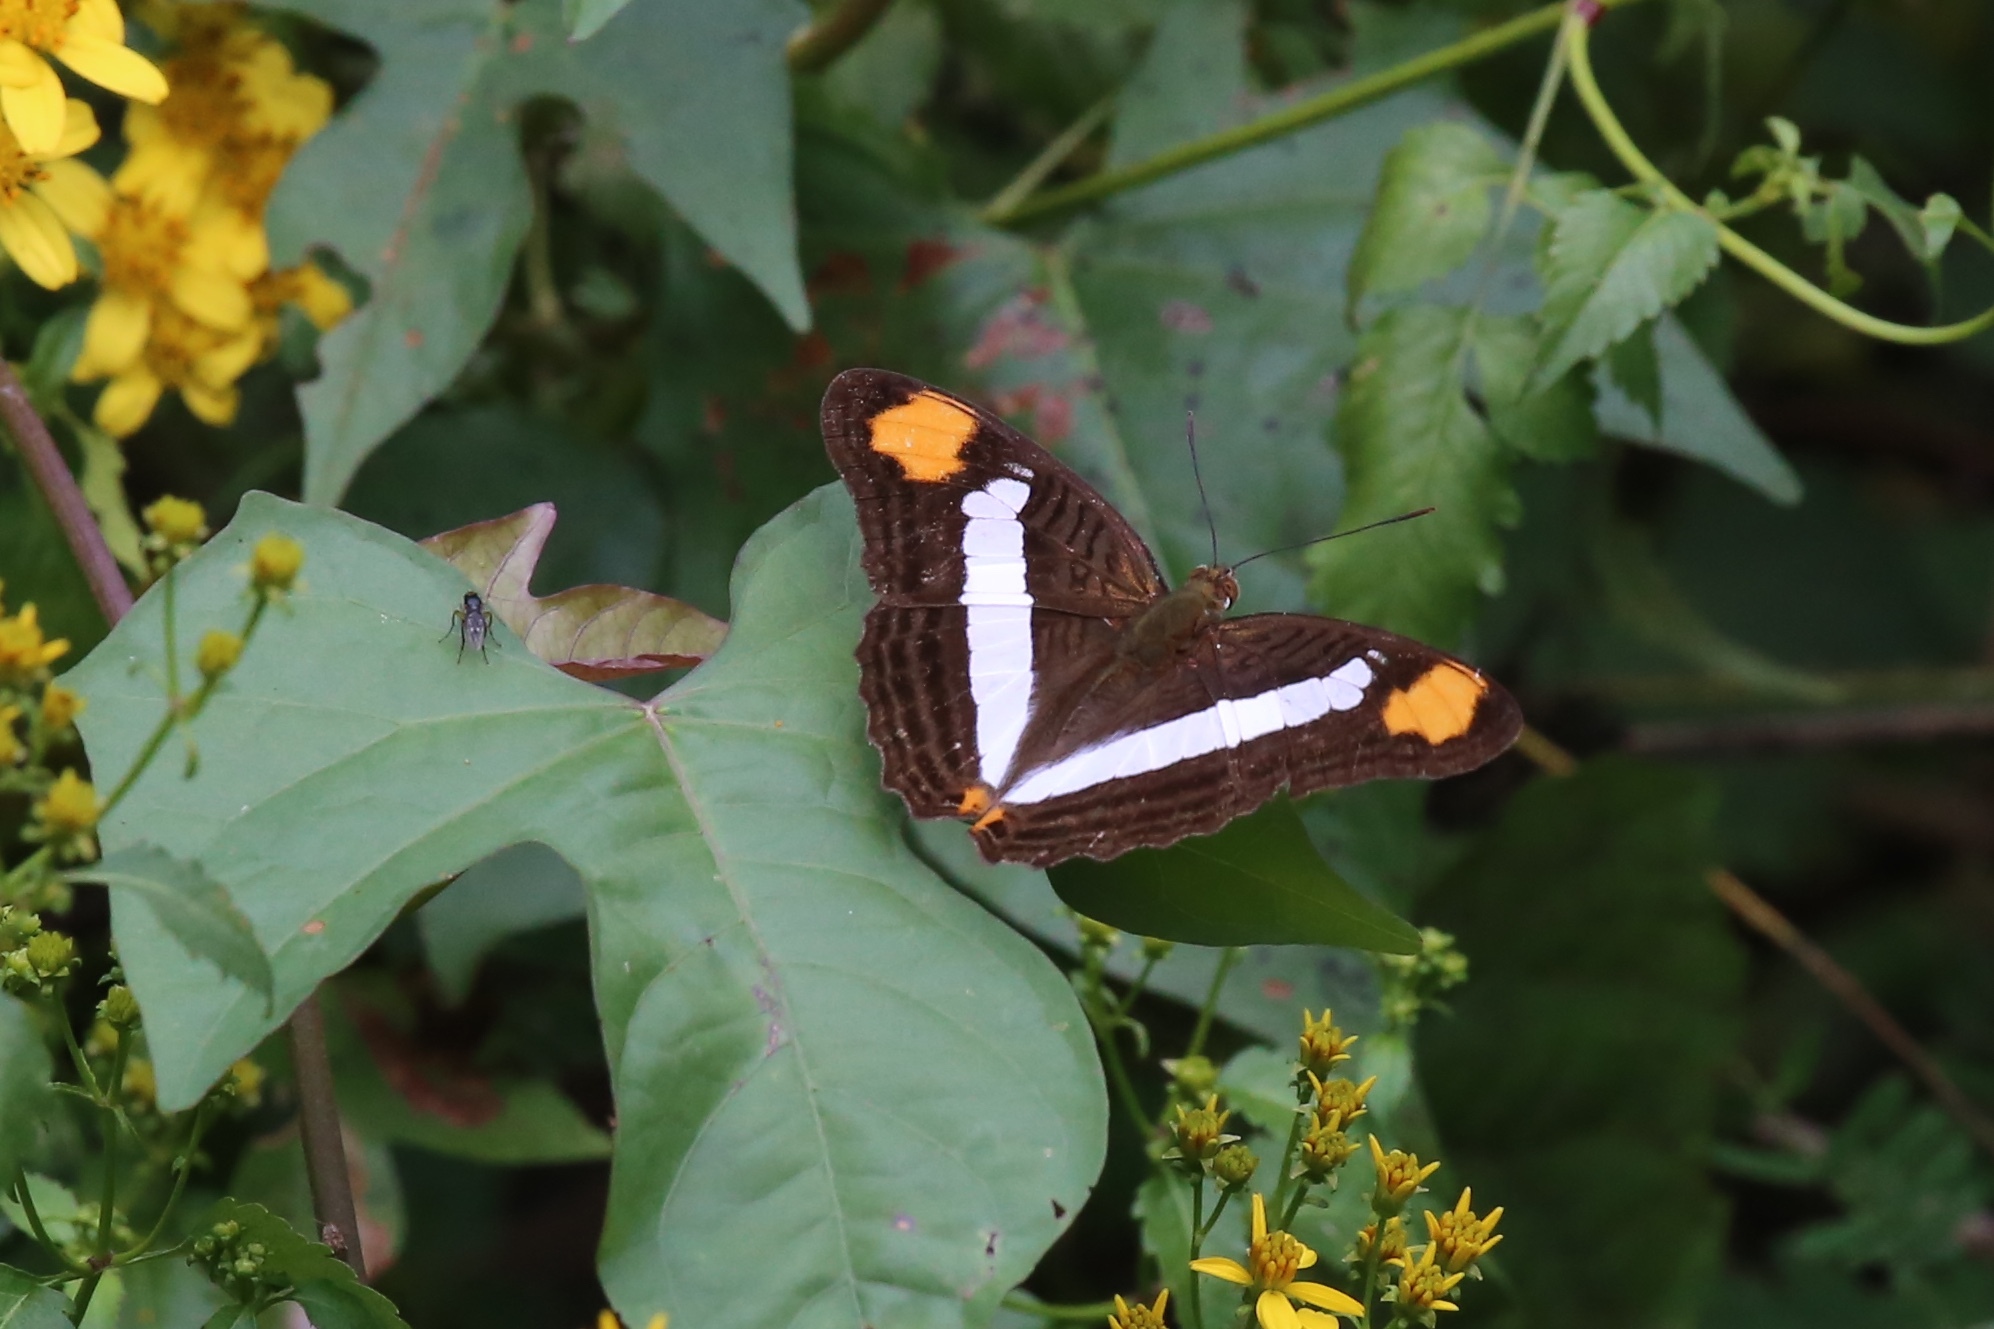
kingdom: Animalia
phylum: Arthropoda
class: Insecta
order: Lepidoptera
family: Nymphalidae
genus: Limenitis
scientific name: Limenitis Adelpha basiloides
